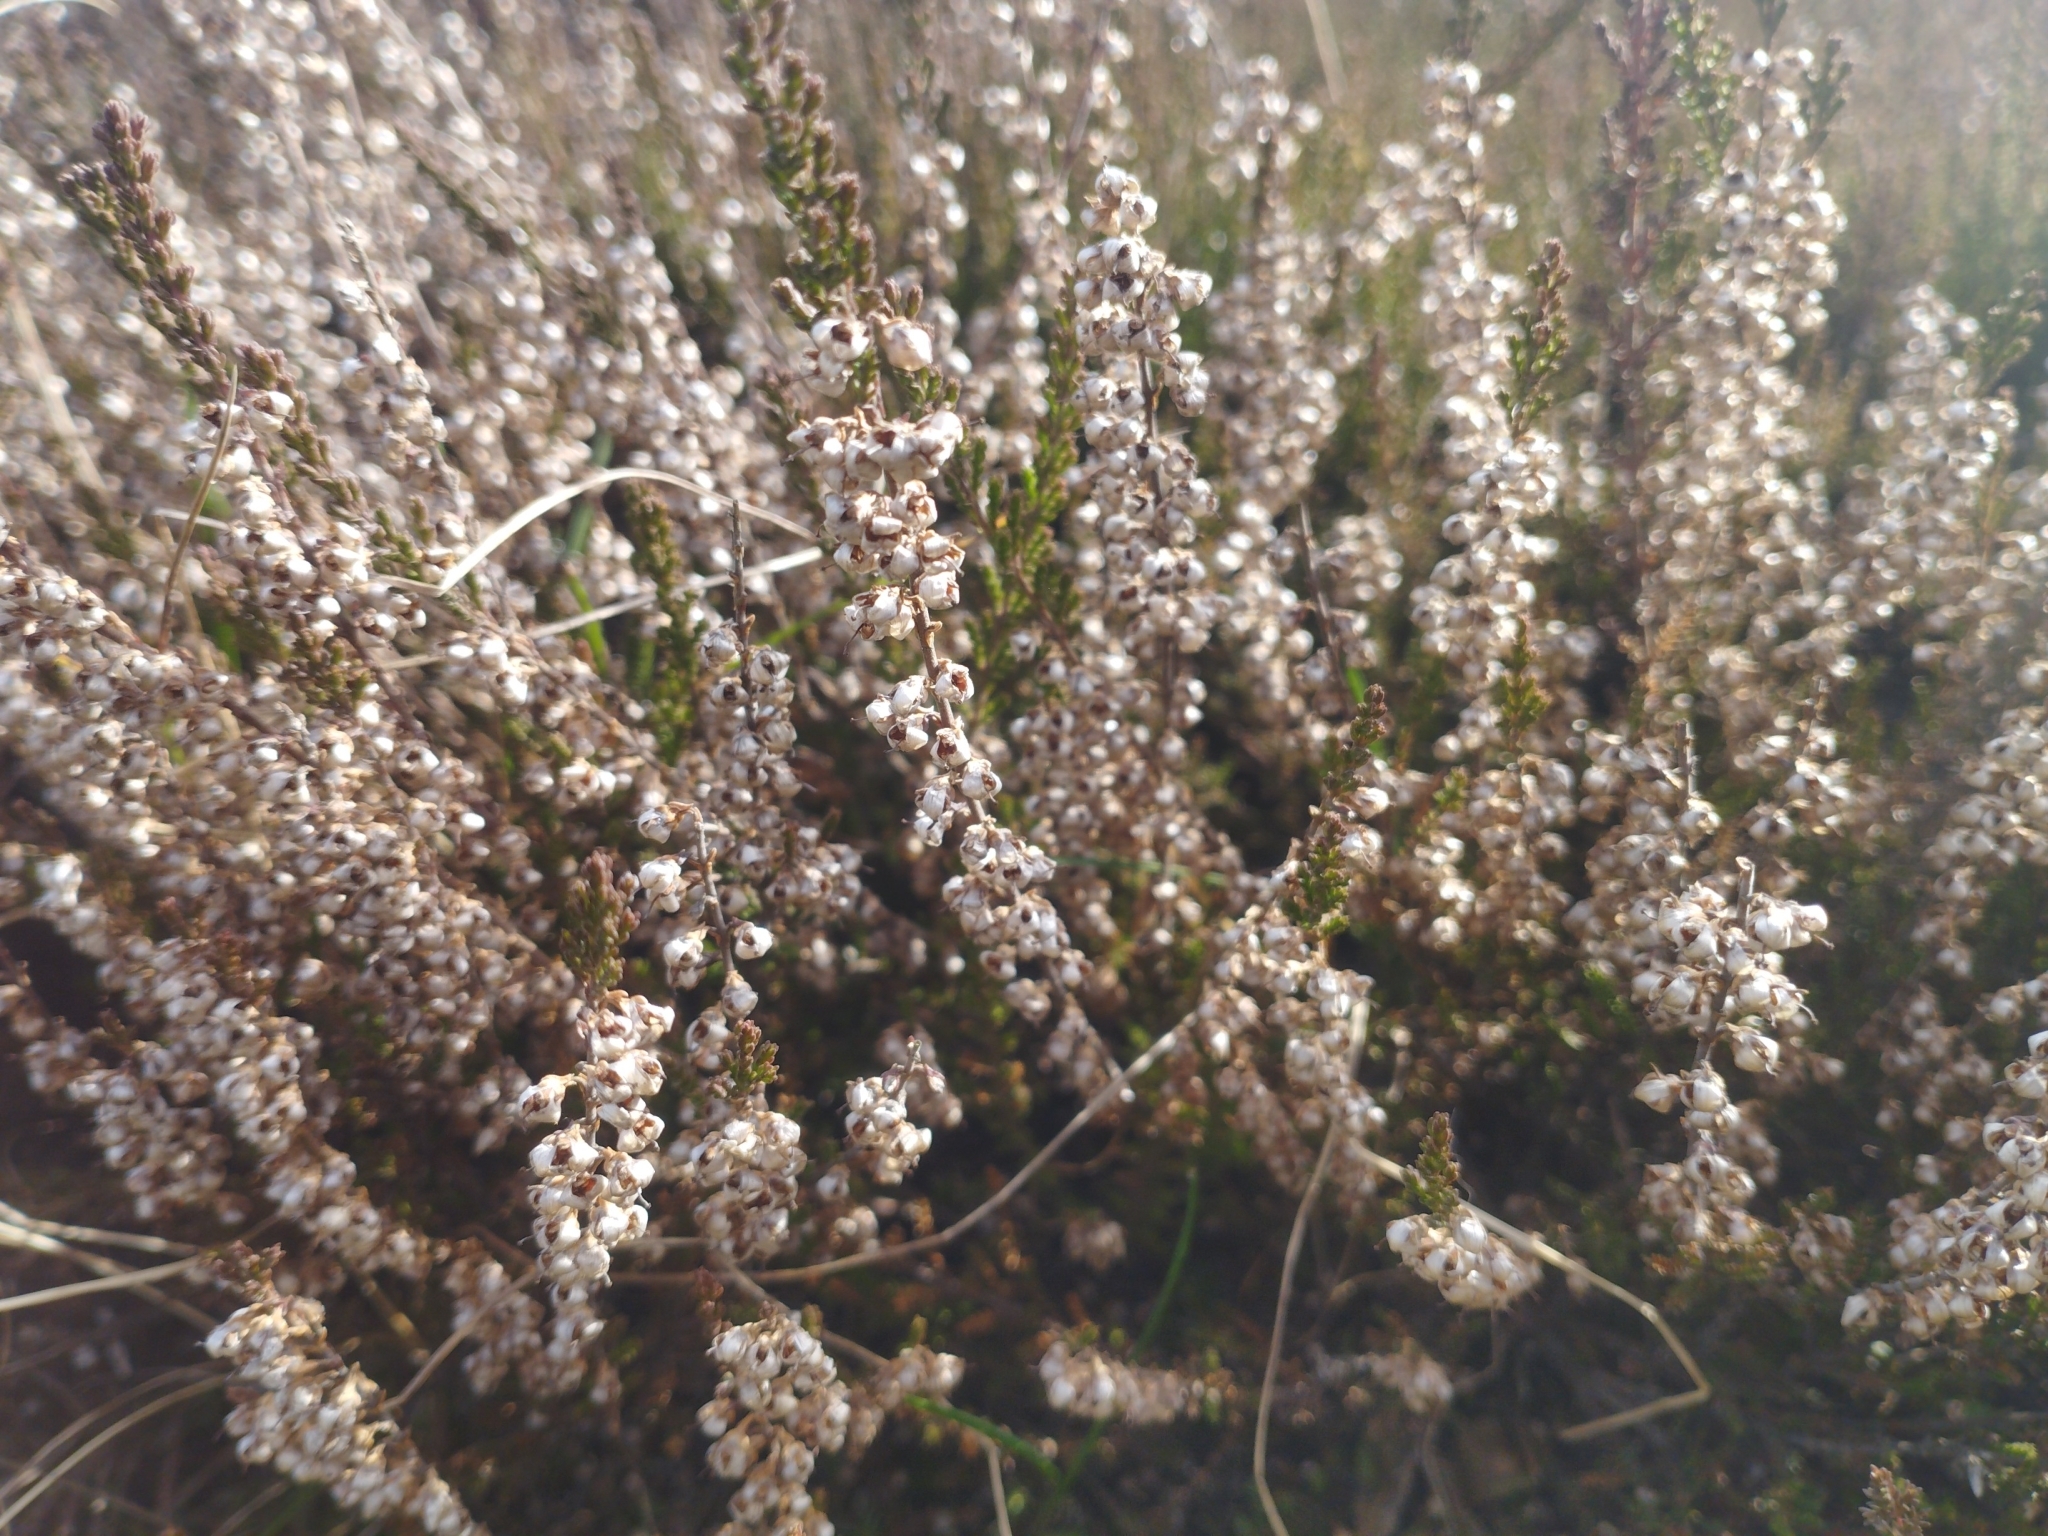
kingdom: Plantae
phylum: Tracheophyta
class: Magnoliopsida
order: Ericales
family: Ericaceae
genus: Calluna
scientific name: Calluna vulgaris
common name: Heather
